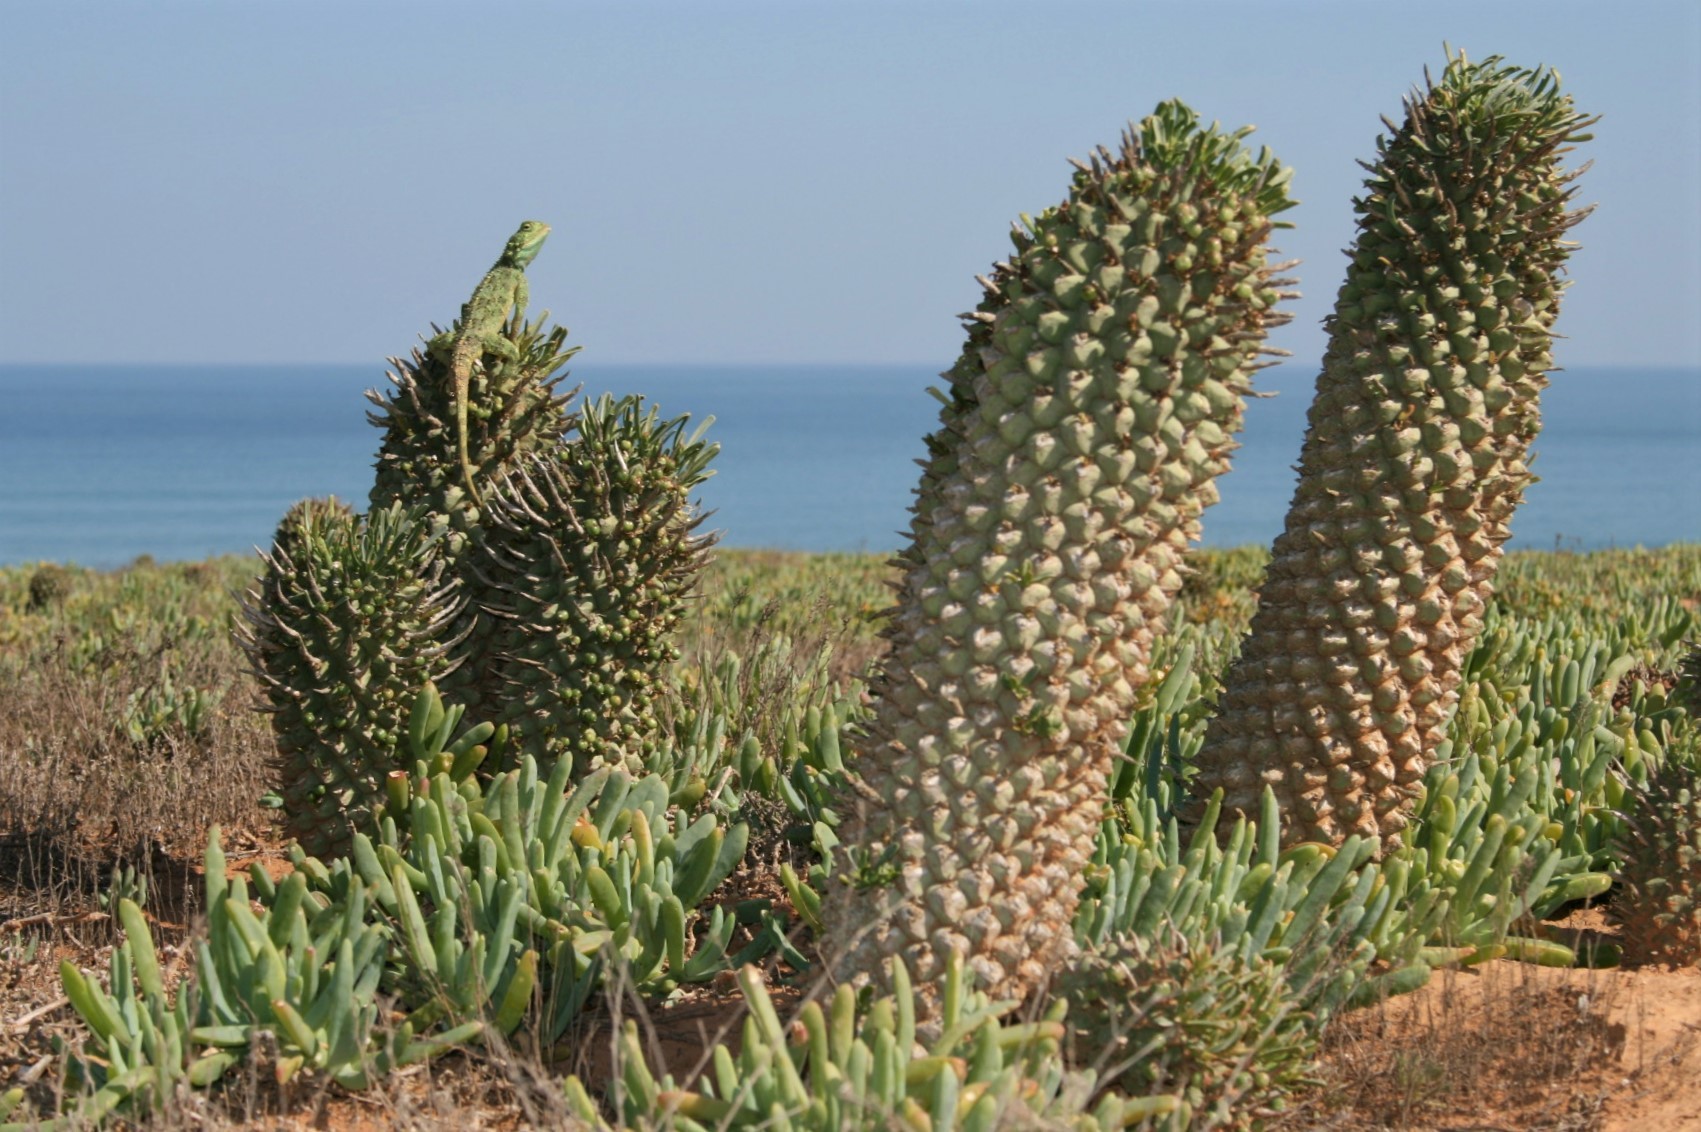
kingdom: Animalia
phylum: Chordata
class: Squamata
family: Agamidae
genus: Agama
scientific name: Agama hispida
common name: Common spiny agama
